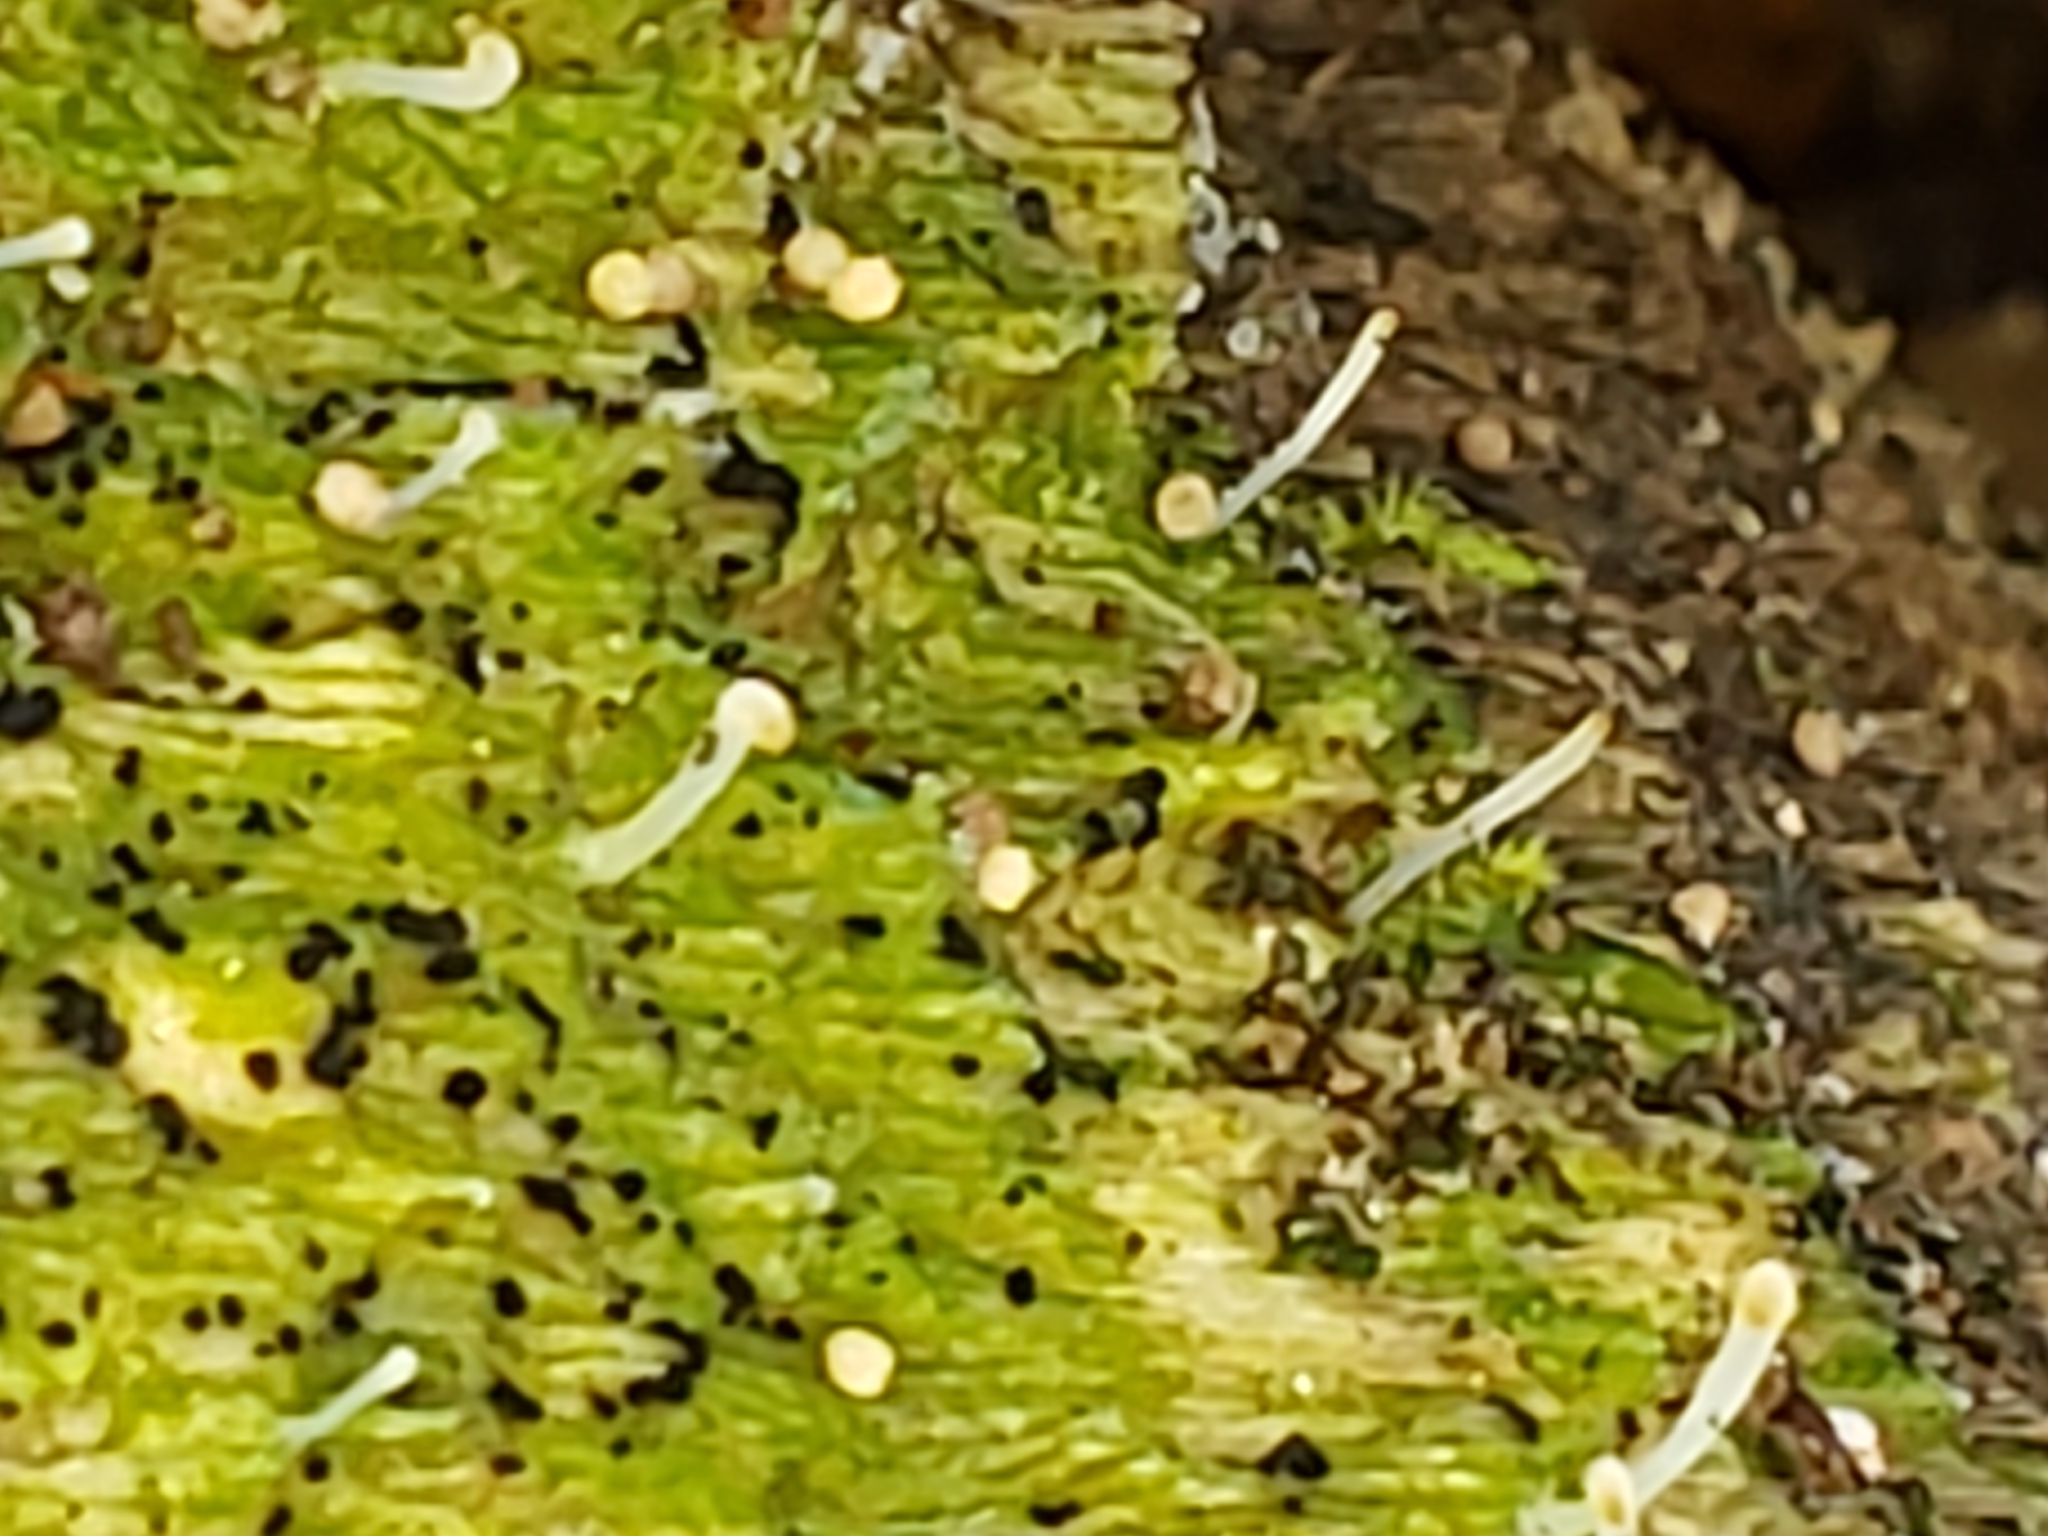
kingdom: Fungi
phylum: Basidiomycota
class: Agaricomycetes
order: Cantharellales
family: Hydnaceae
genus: Multiclavula
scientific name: Multiclavula mucida
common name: White green-algae coral
